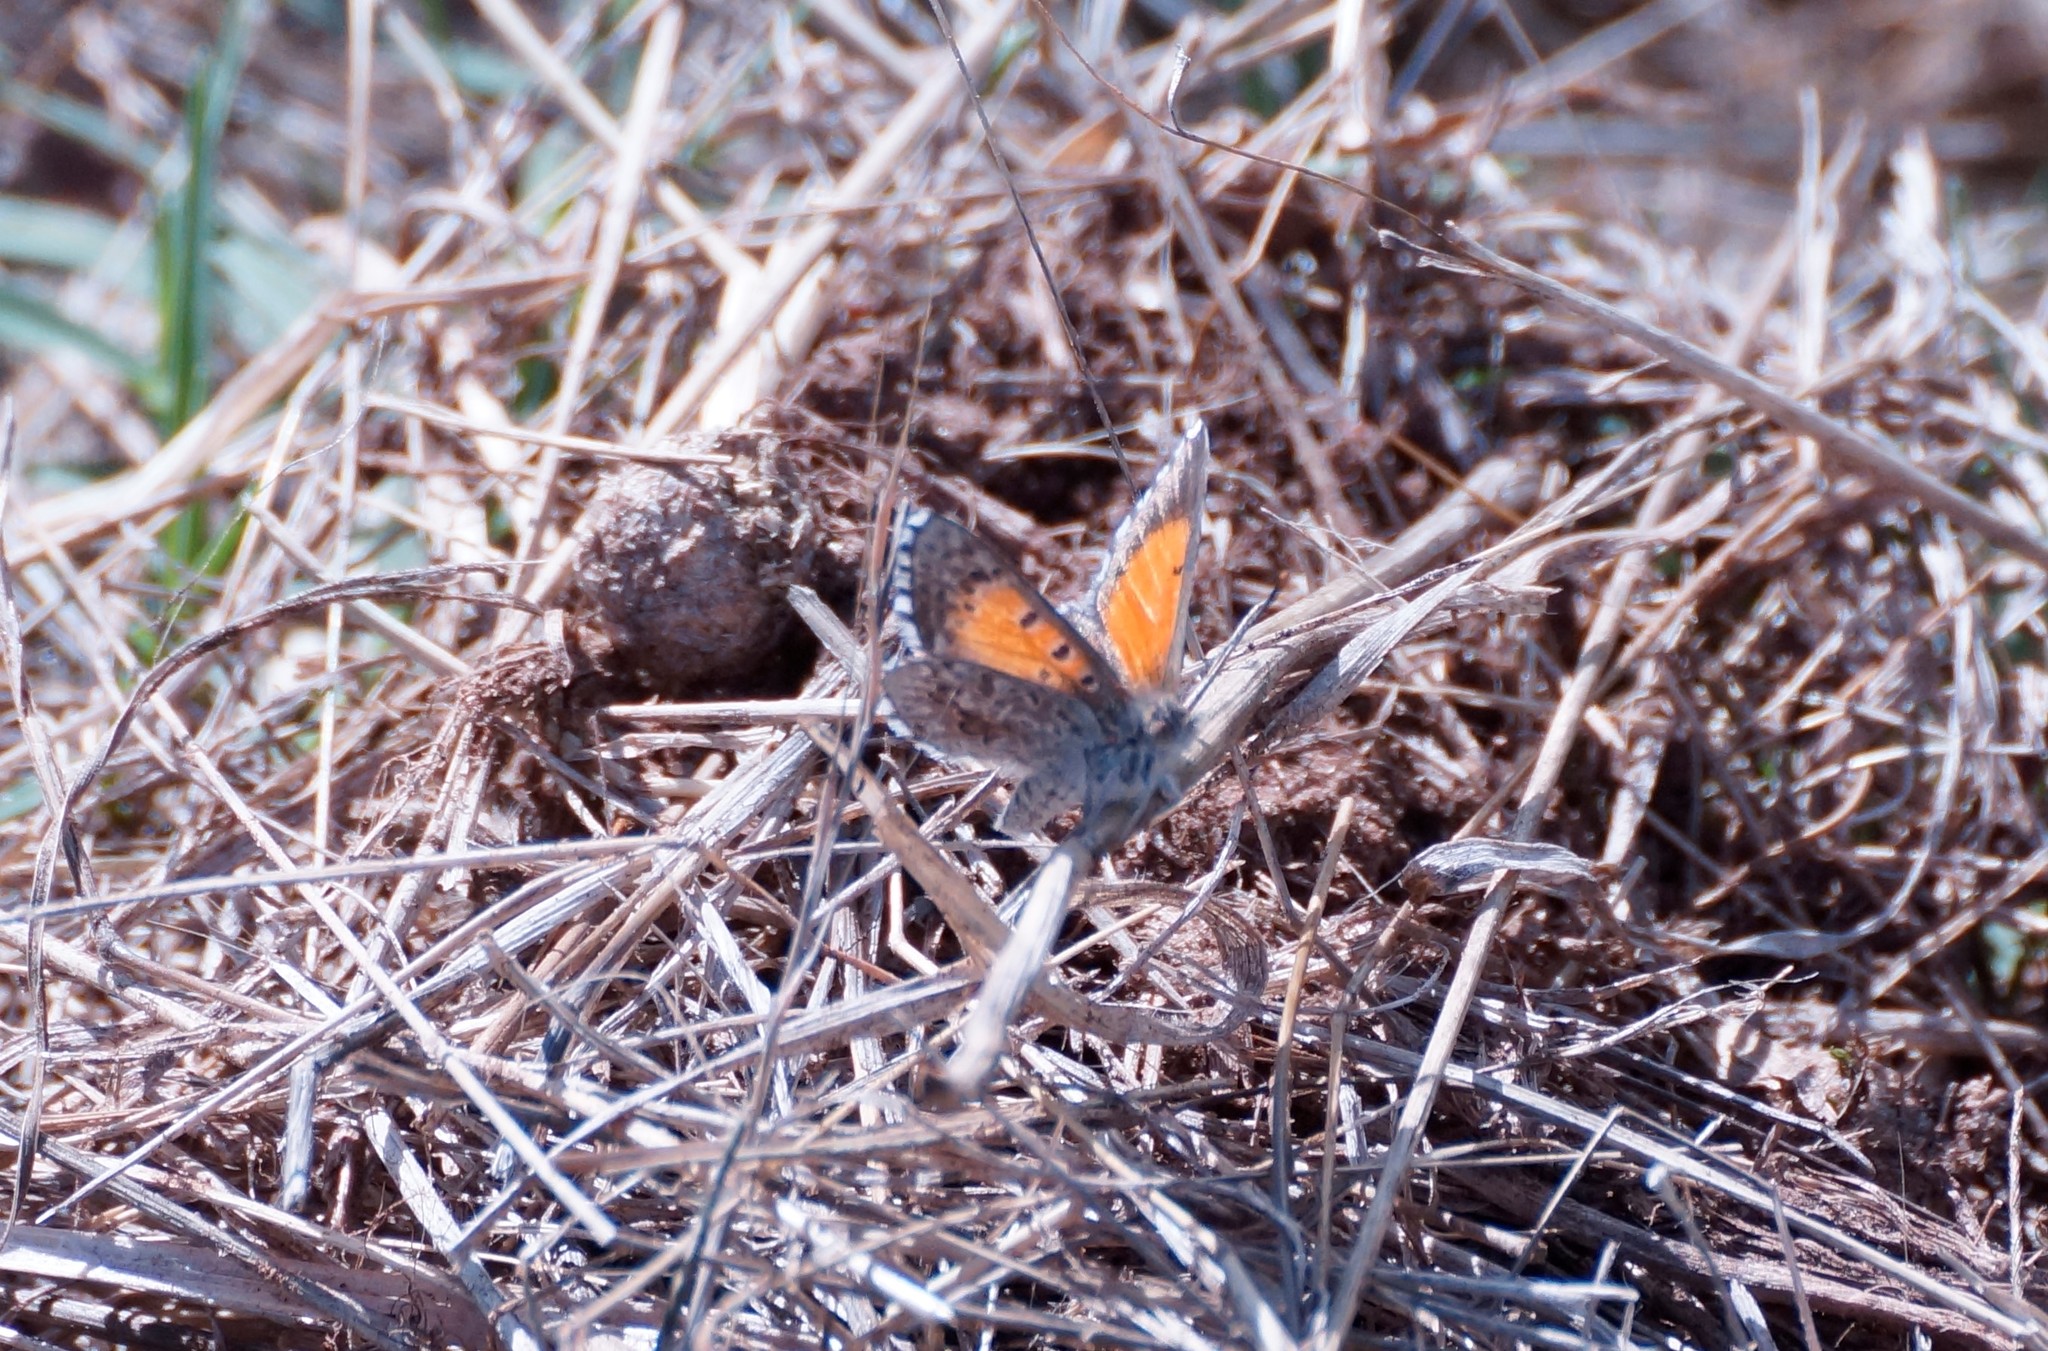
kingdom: Animalia
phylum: Arthropoda
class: Insecta
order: Lepidoptera
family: Lycaenidae
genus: Lucia
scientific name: Lucia limbaria
